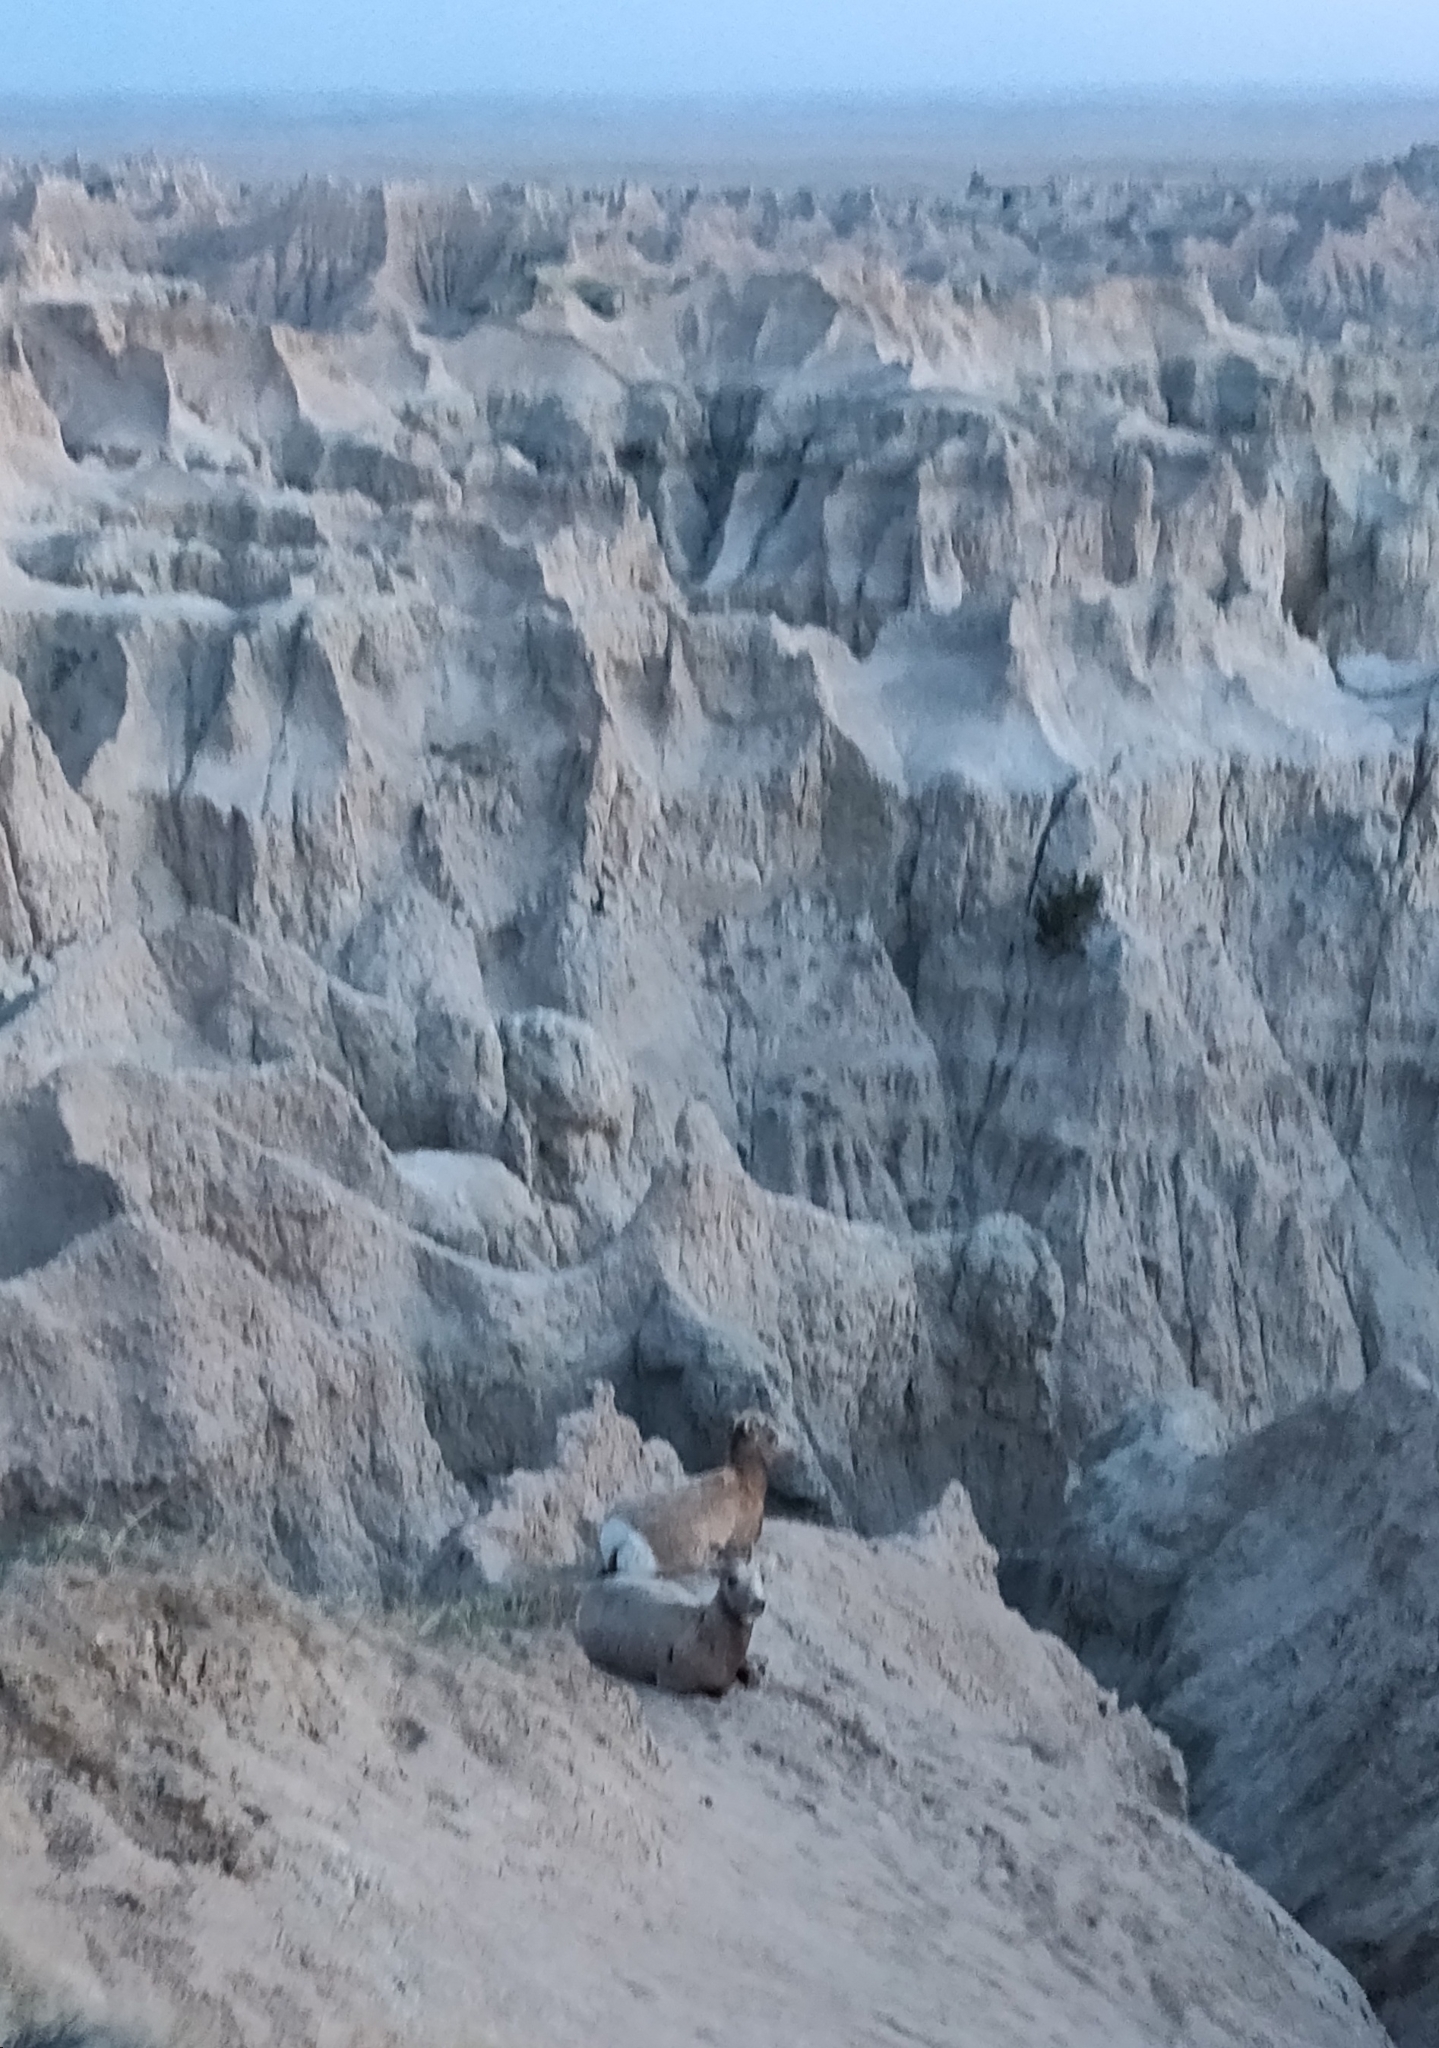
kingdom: Animalia
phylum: Chordata
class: Mammalia
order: Artiodactyla
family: Bovidae
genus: Ovis
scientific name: Ovis canadensis
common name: Bighorn sheep
